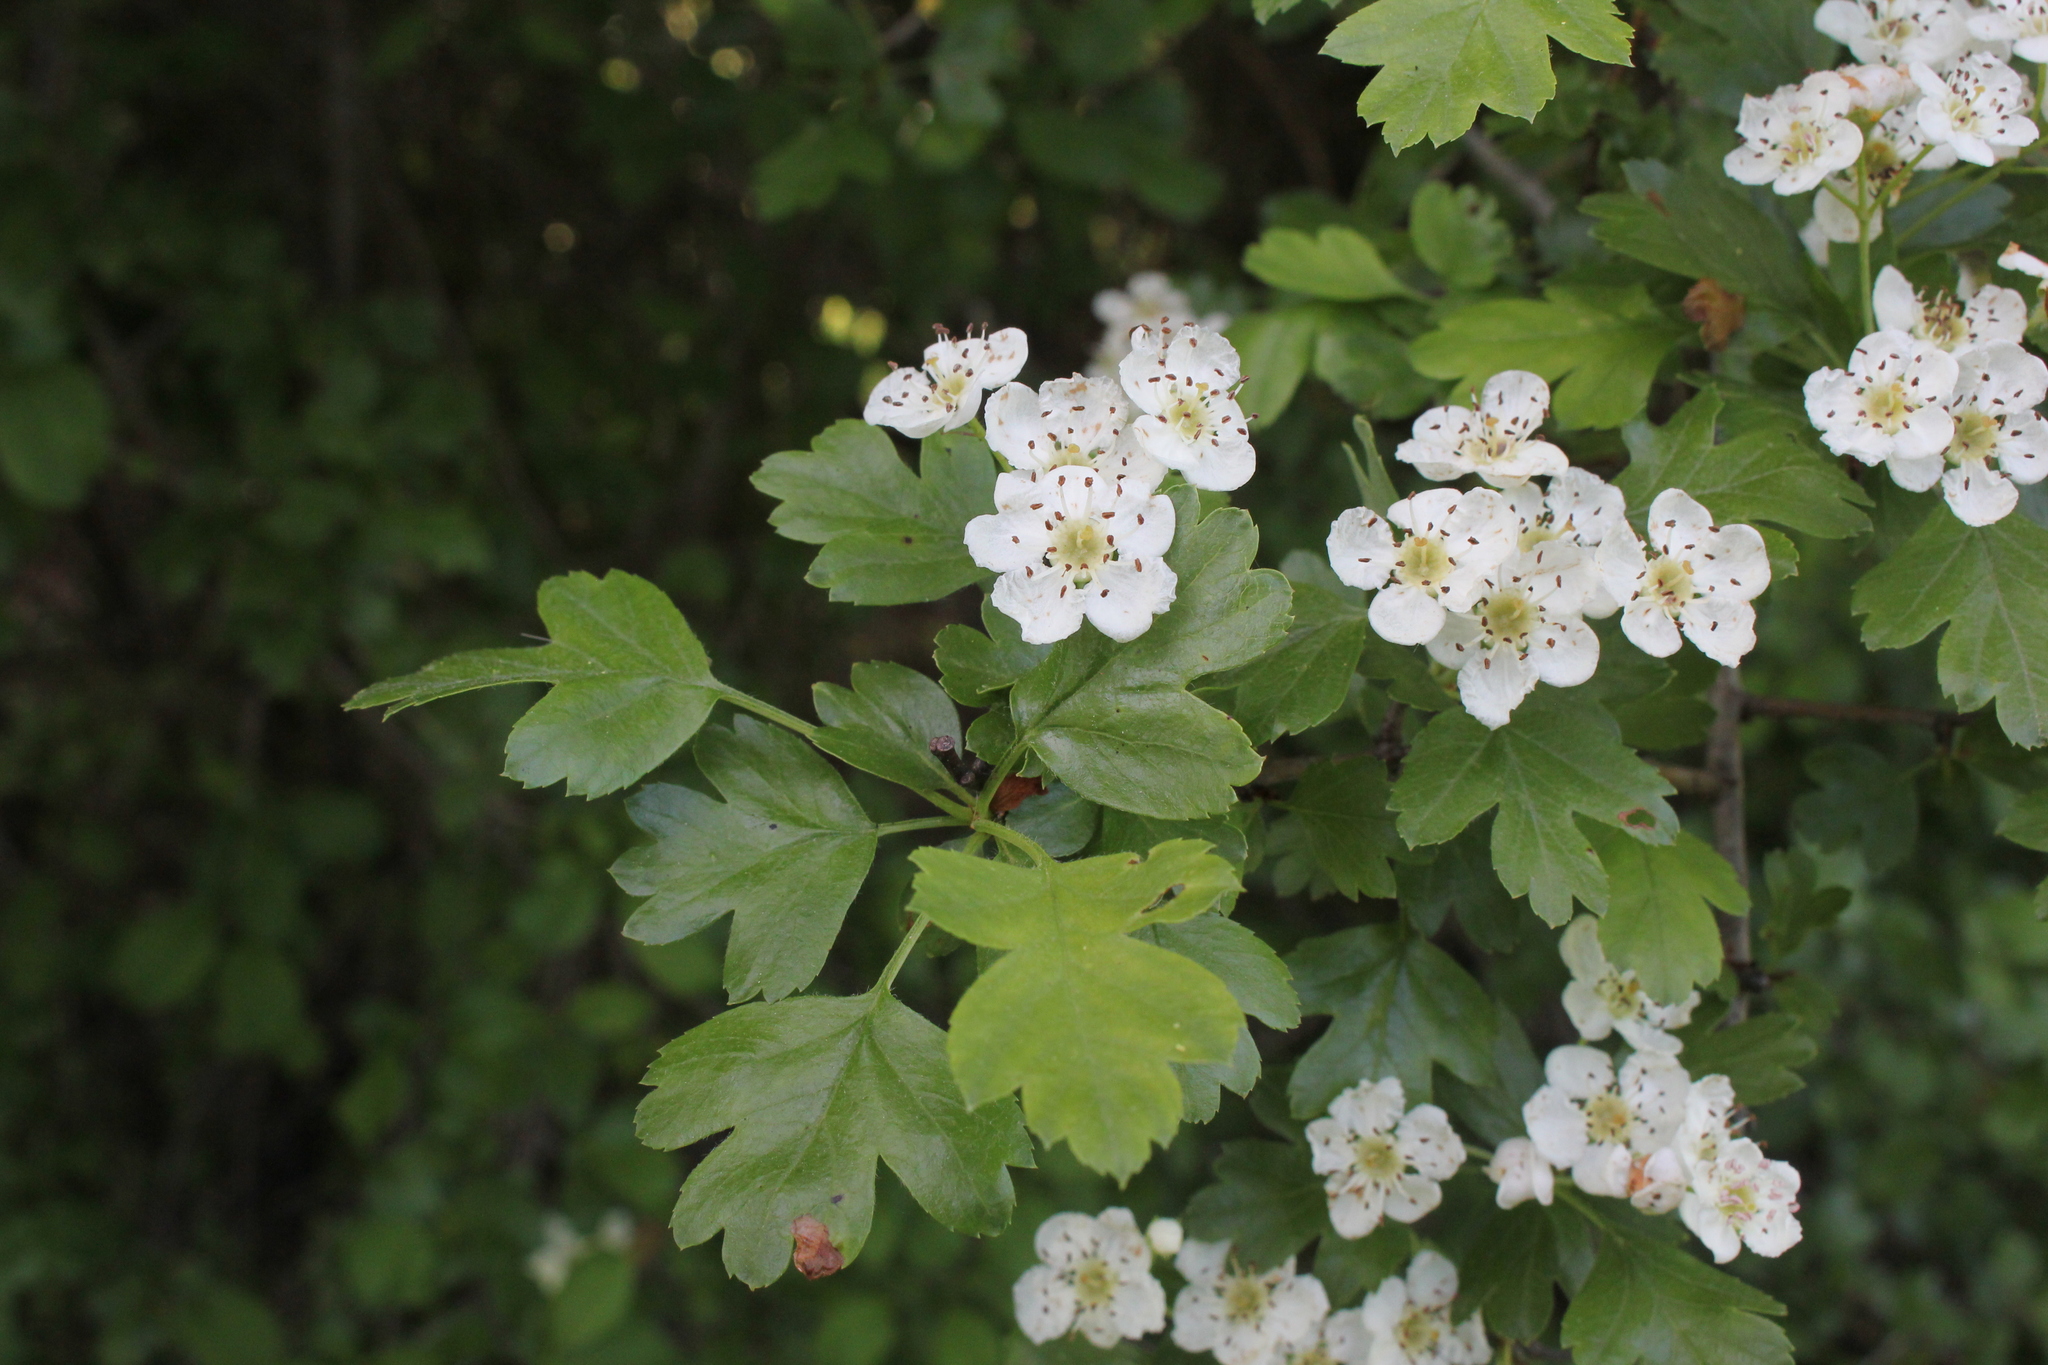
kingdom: Plantae
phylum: Tracheophyta
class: Magnoliopsida
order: Rosales
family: Rosaceae
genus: Crataegus
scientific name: Crataegus monogyna
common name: Hawthorn
